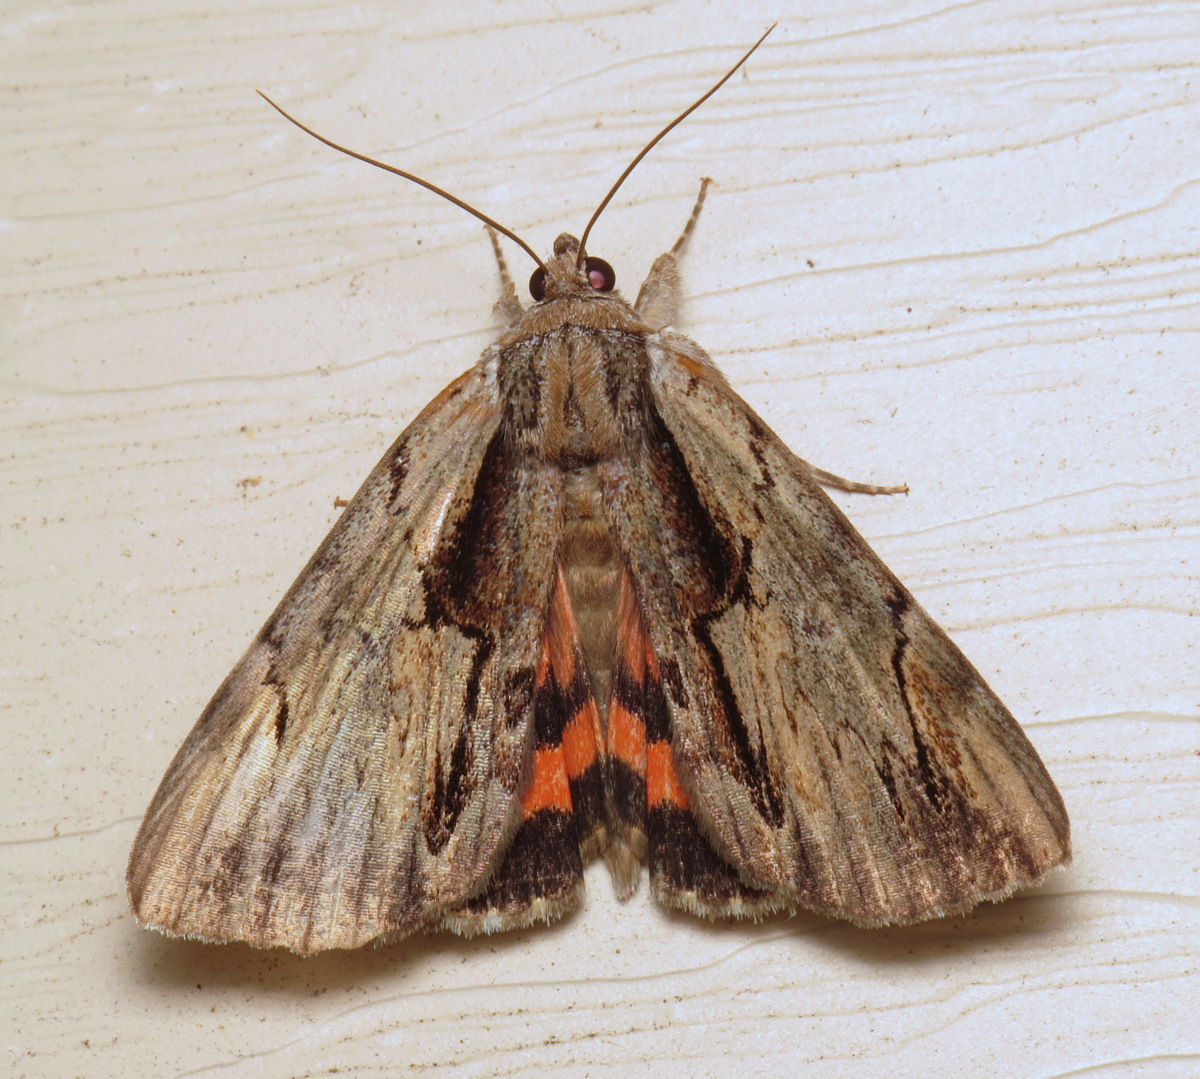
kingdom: Animalia
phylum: Arthropoda
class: Insecta
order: Lepidoptera
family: Erebidae
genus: Catocala
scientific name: Catocala ultronia
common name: Ultronia underwing
